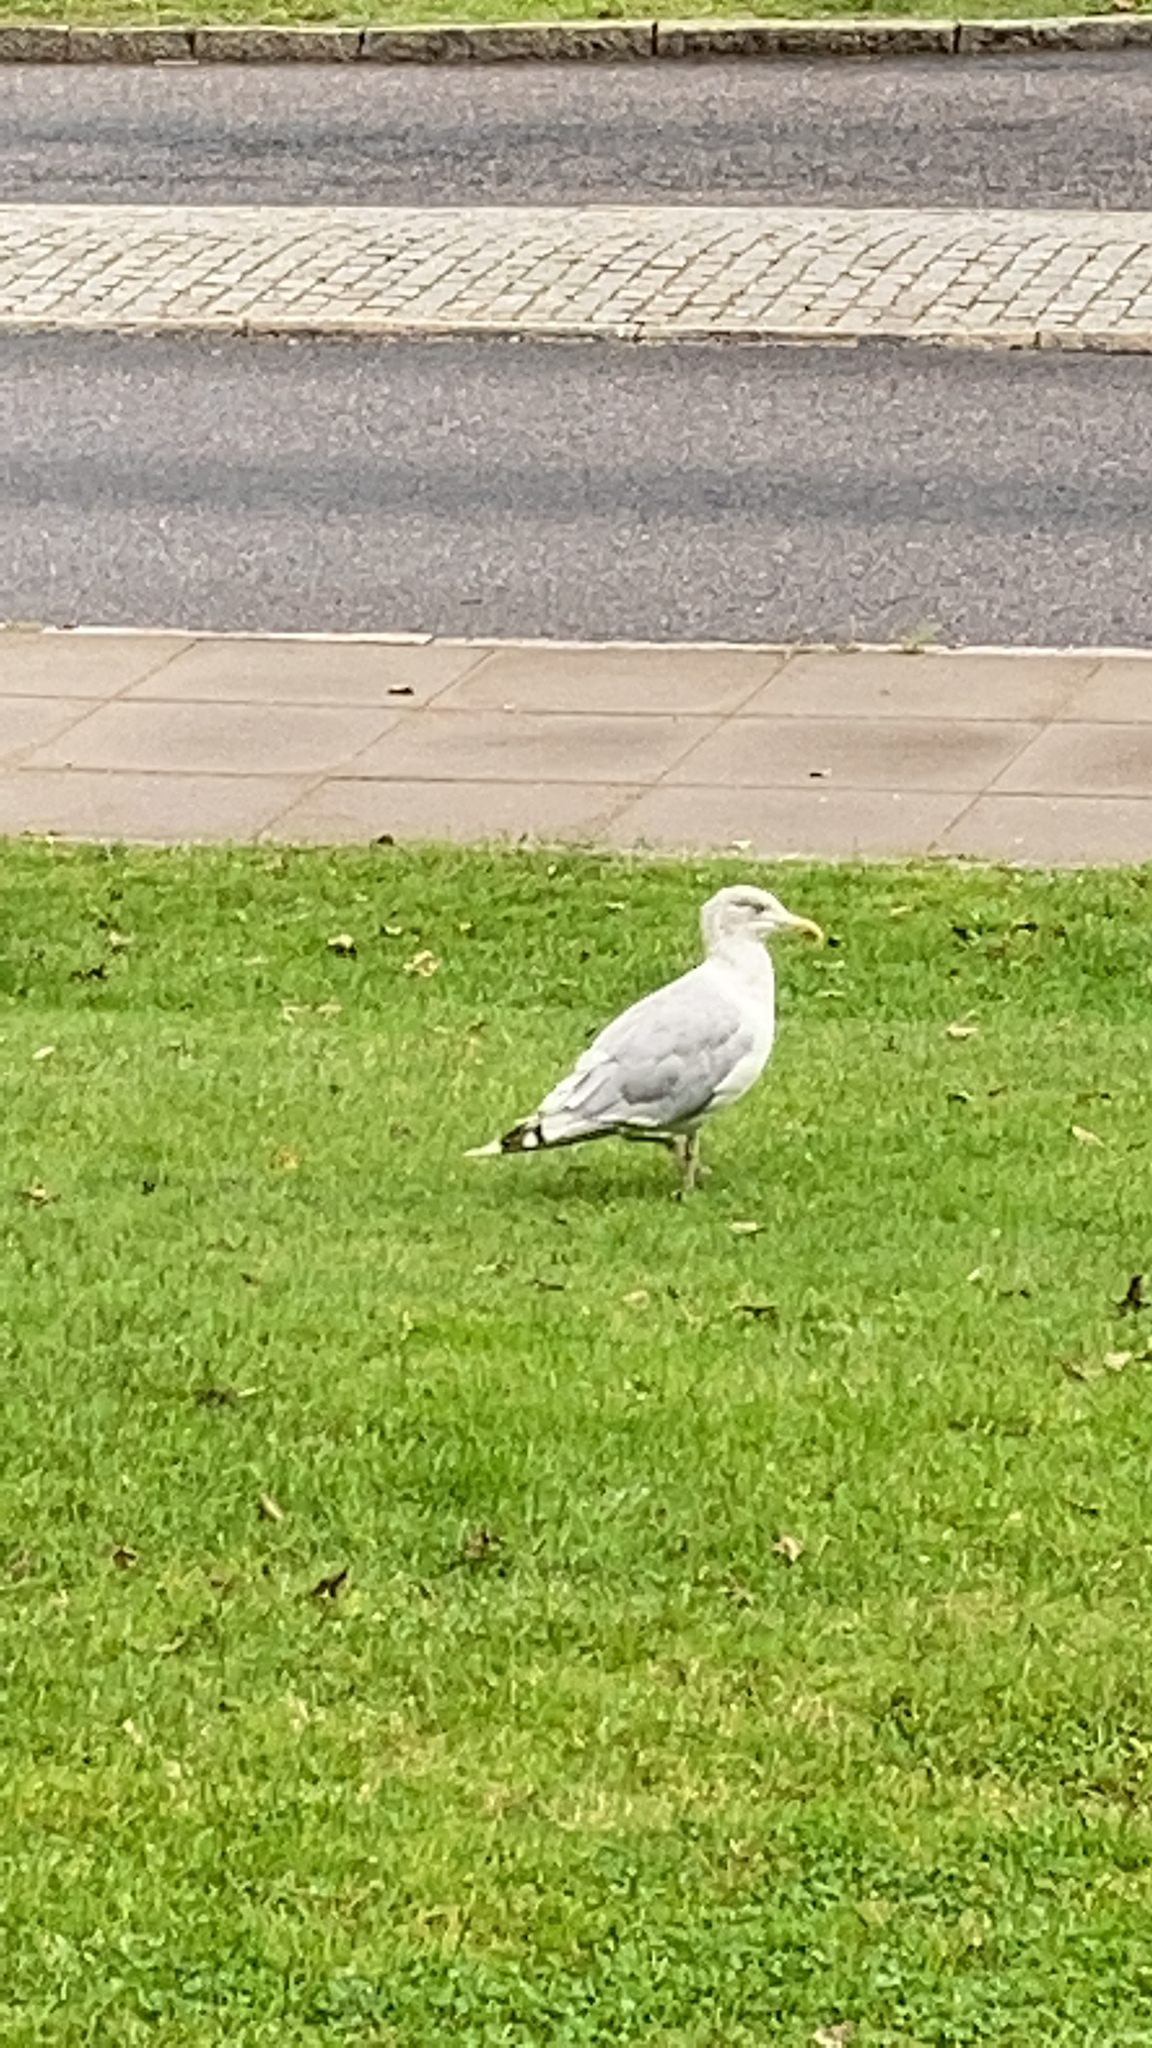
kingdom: Animalia
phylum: Chordata
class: Aves
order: Charadriiformes
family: Laridae
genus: Larus
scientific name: Larus argentatus
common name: Herring gull
